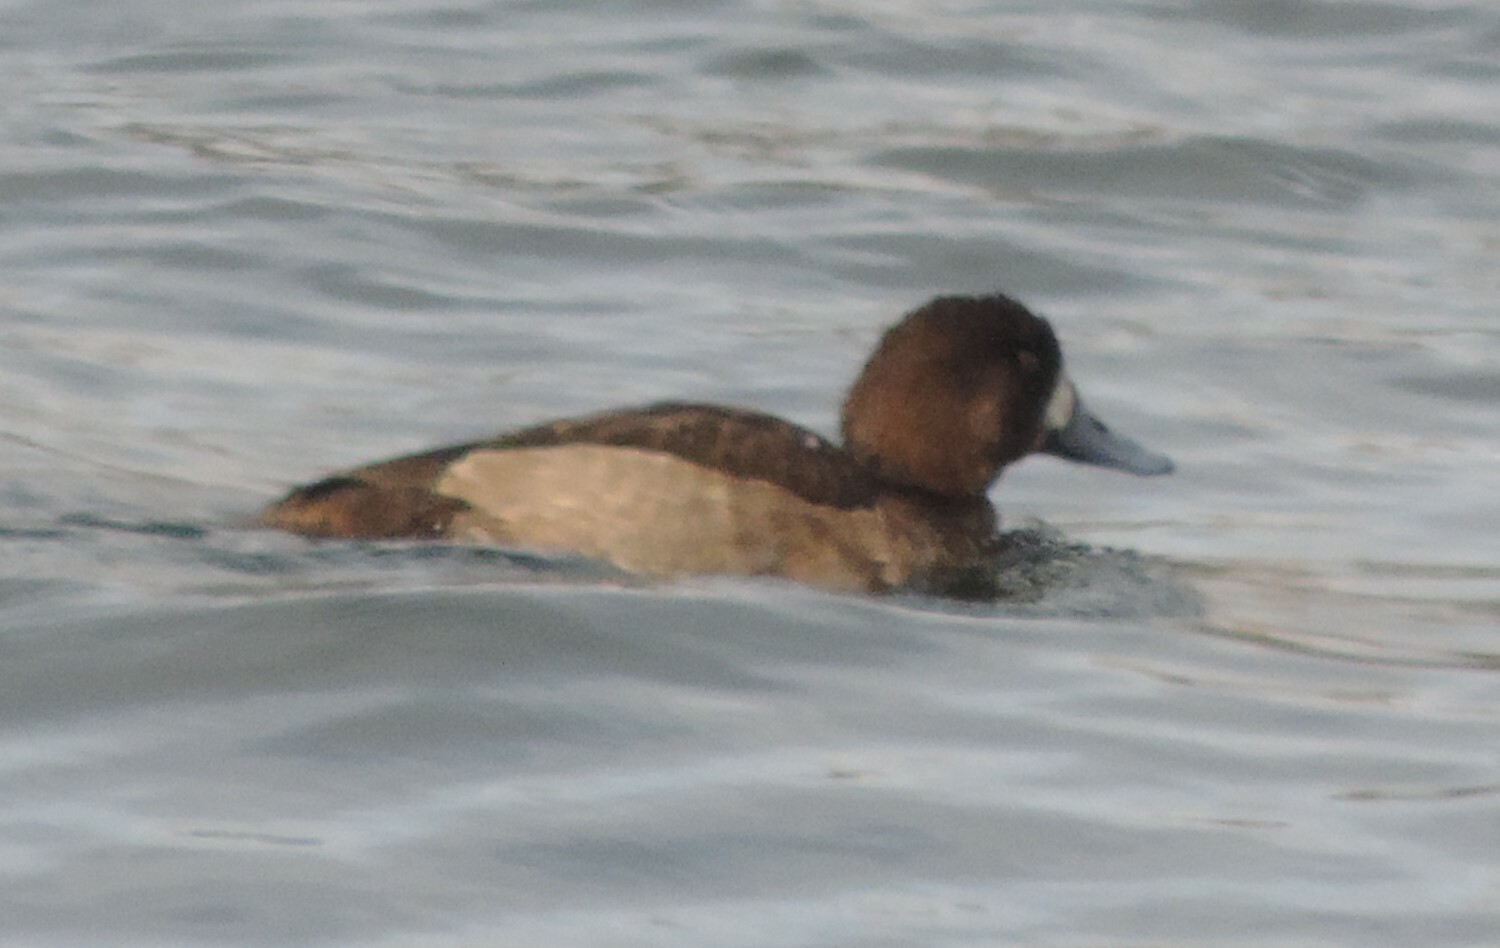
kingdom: Animalia
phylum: Chordata
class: Aves
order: Anseriformes
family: Anatidae
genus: Aythya
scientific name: Aythya marila
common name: Greater scaup
